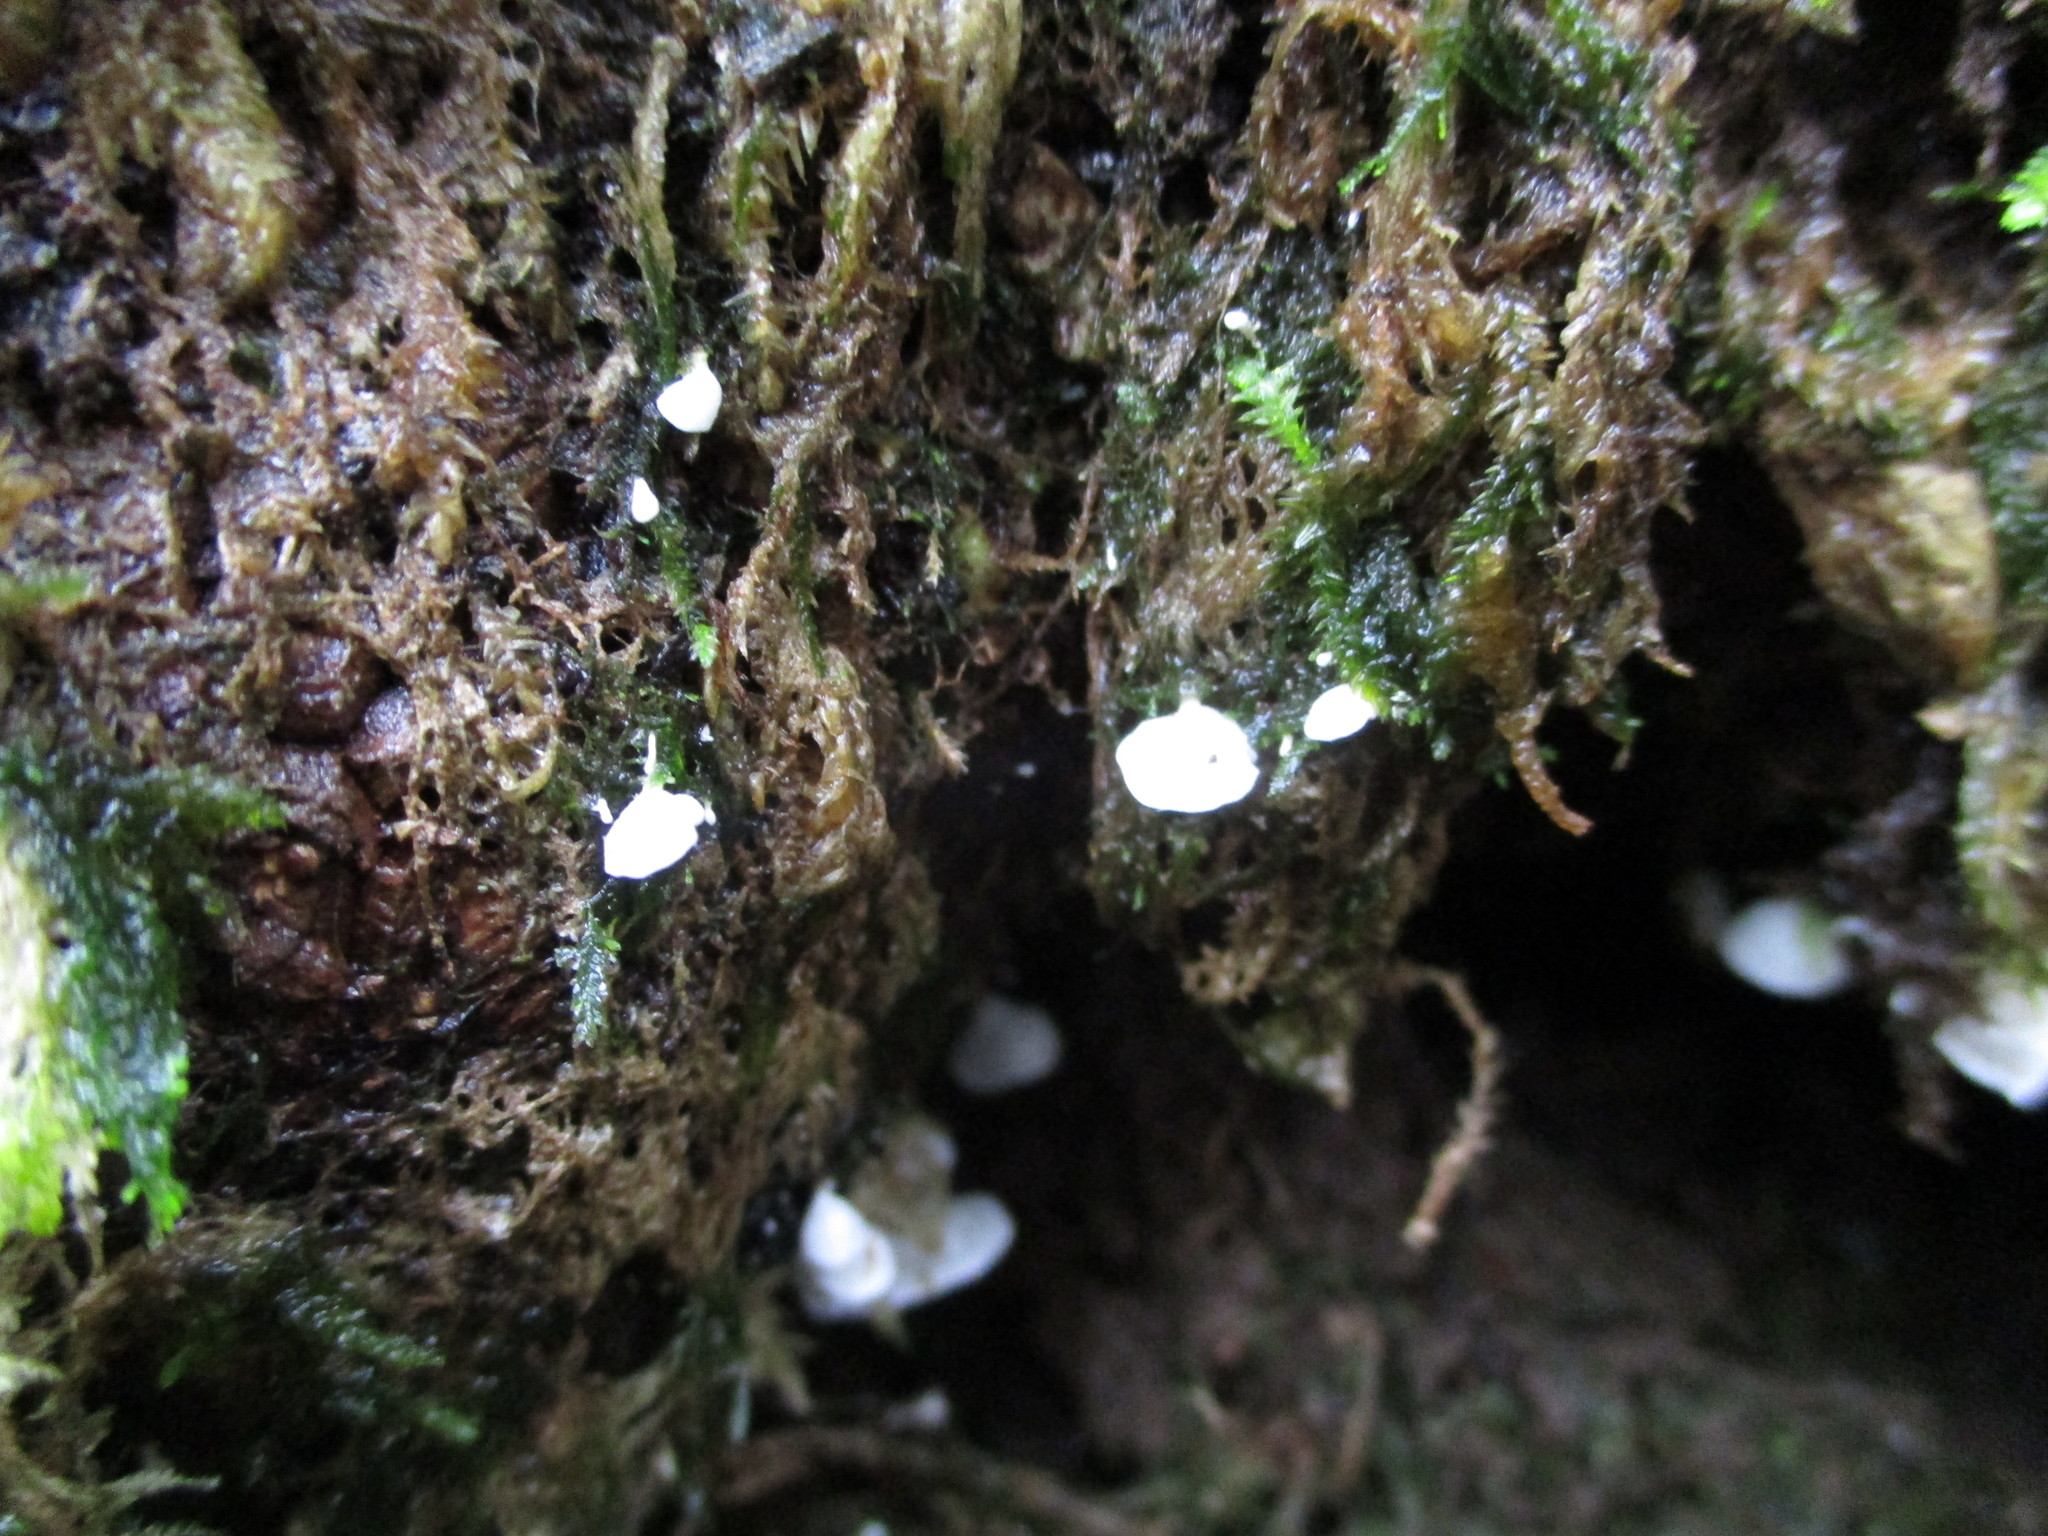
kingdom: Fungi
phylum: Basidiomycota
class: Agaricomycetes
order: Agaricales
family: Tricholomataceae
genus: Rimbachia
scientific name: Rimbachia bryophila
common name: Veined mossear
